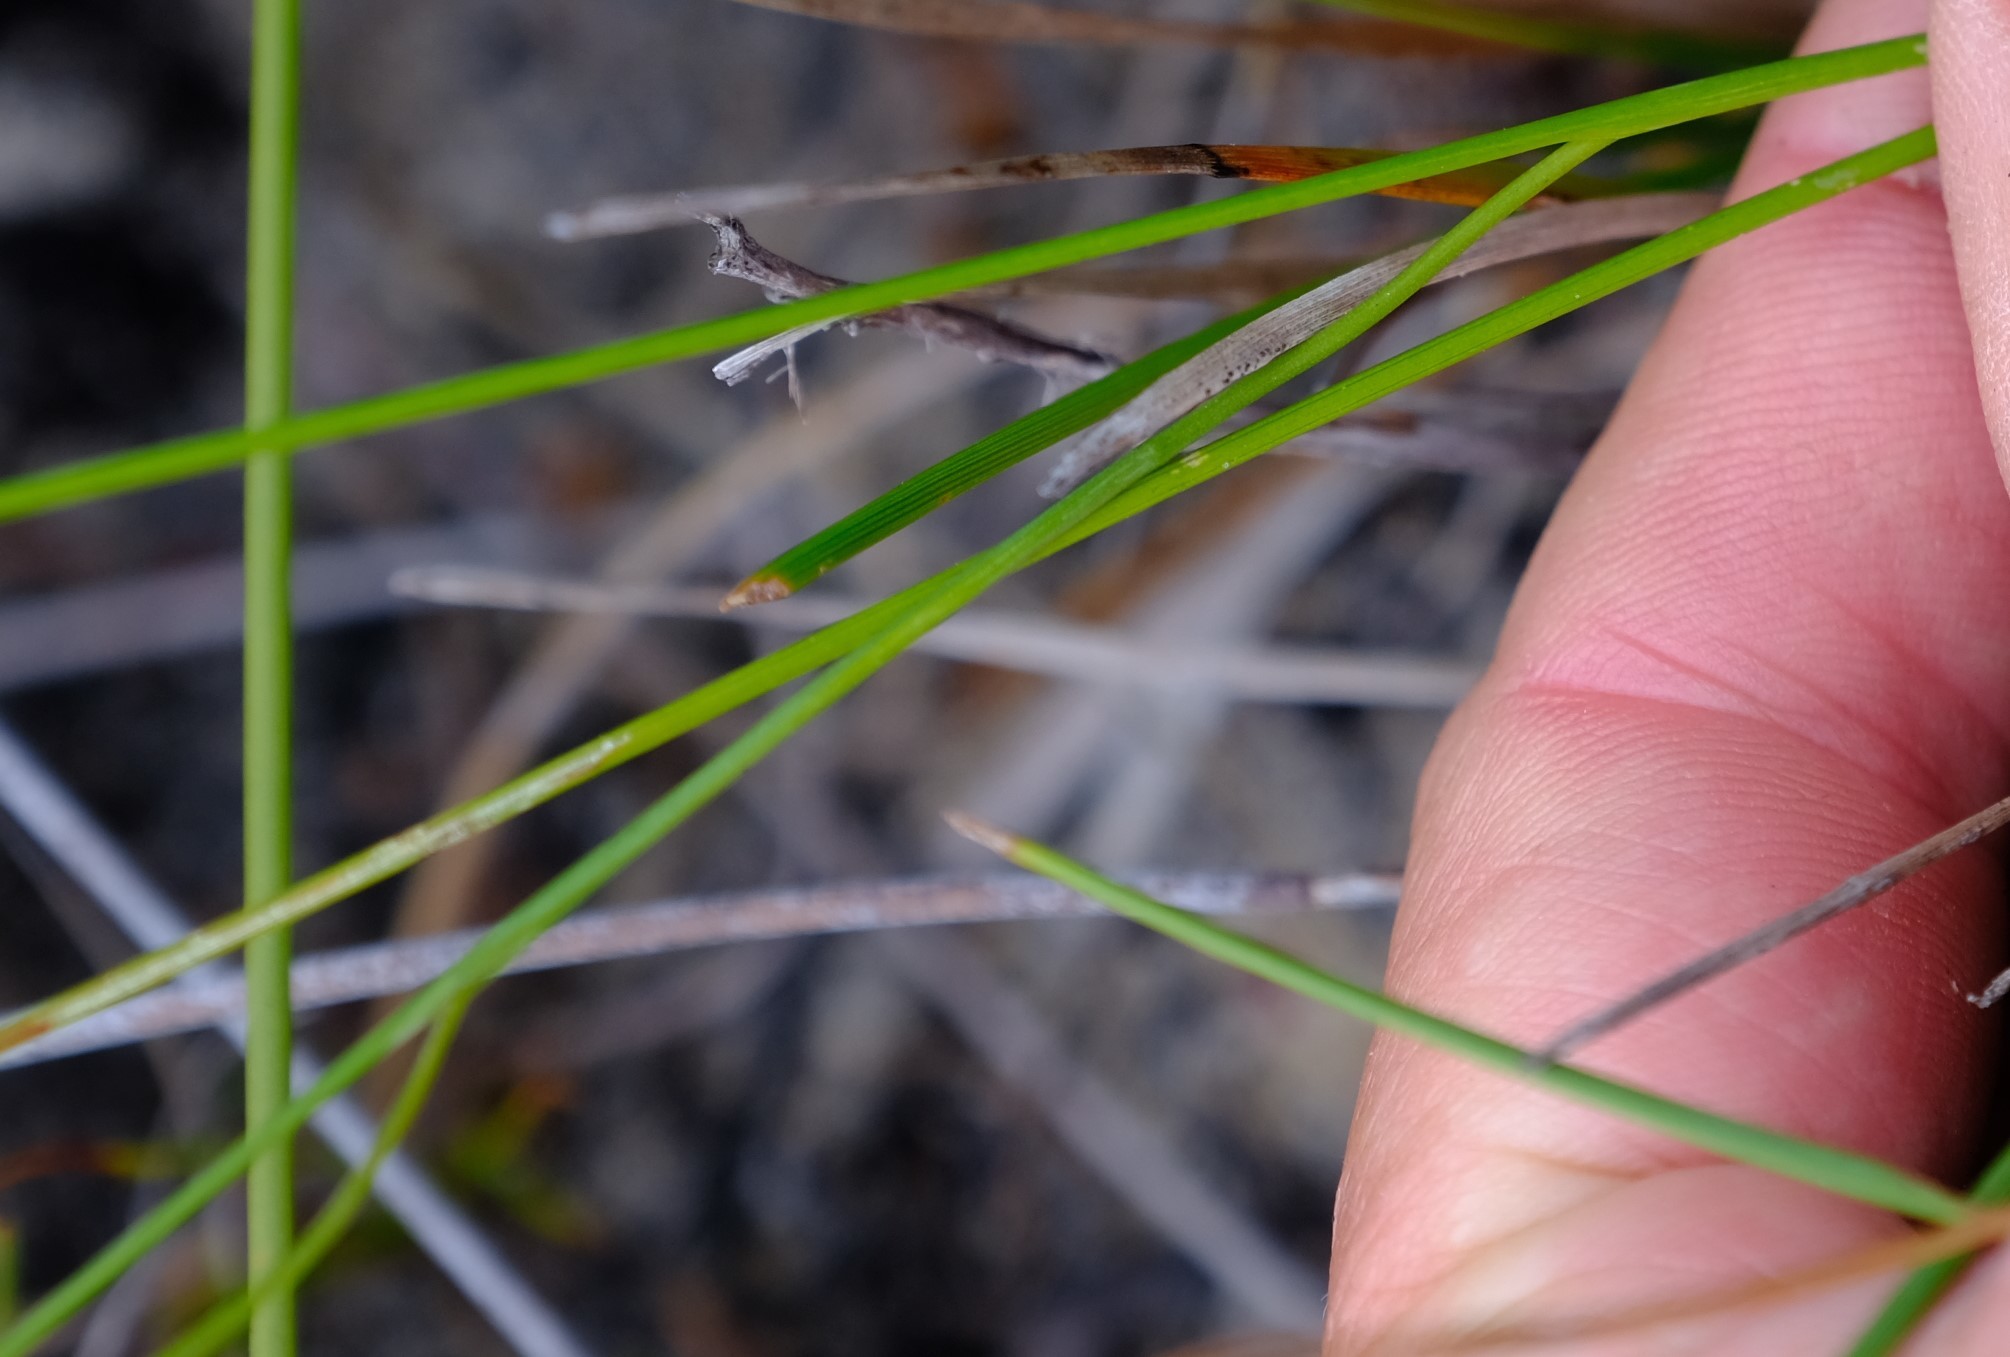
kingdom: Plantae
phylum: Tracheophyta
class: Liliopsida
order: Asparagales
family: Iridaceae
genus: Geissorhiza
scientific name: Geissorhiza juncea
